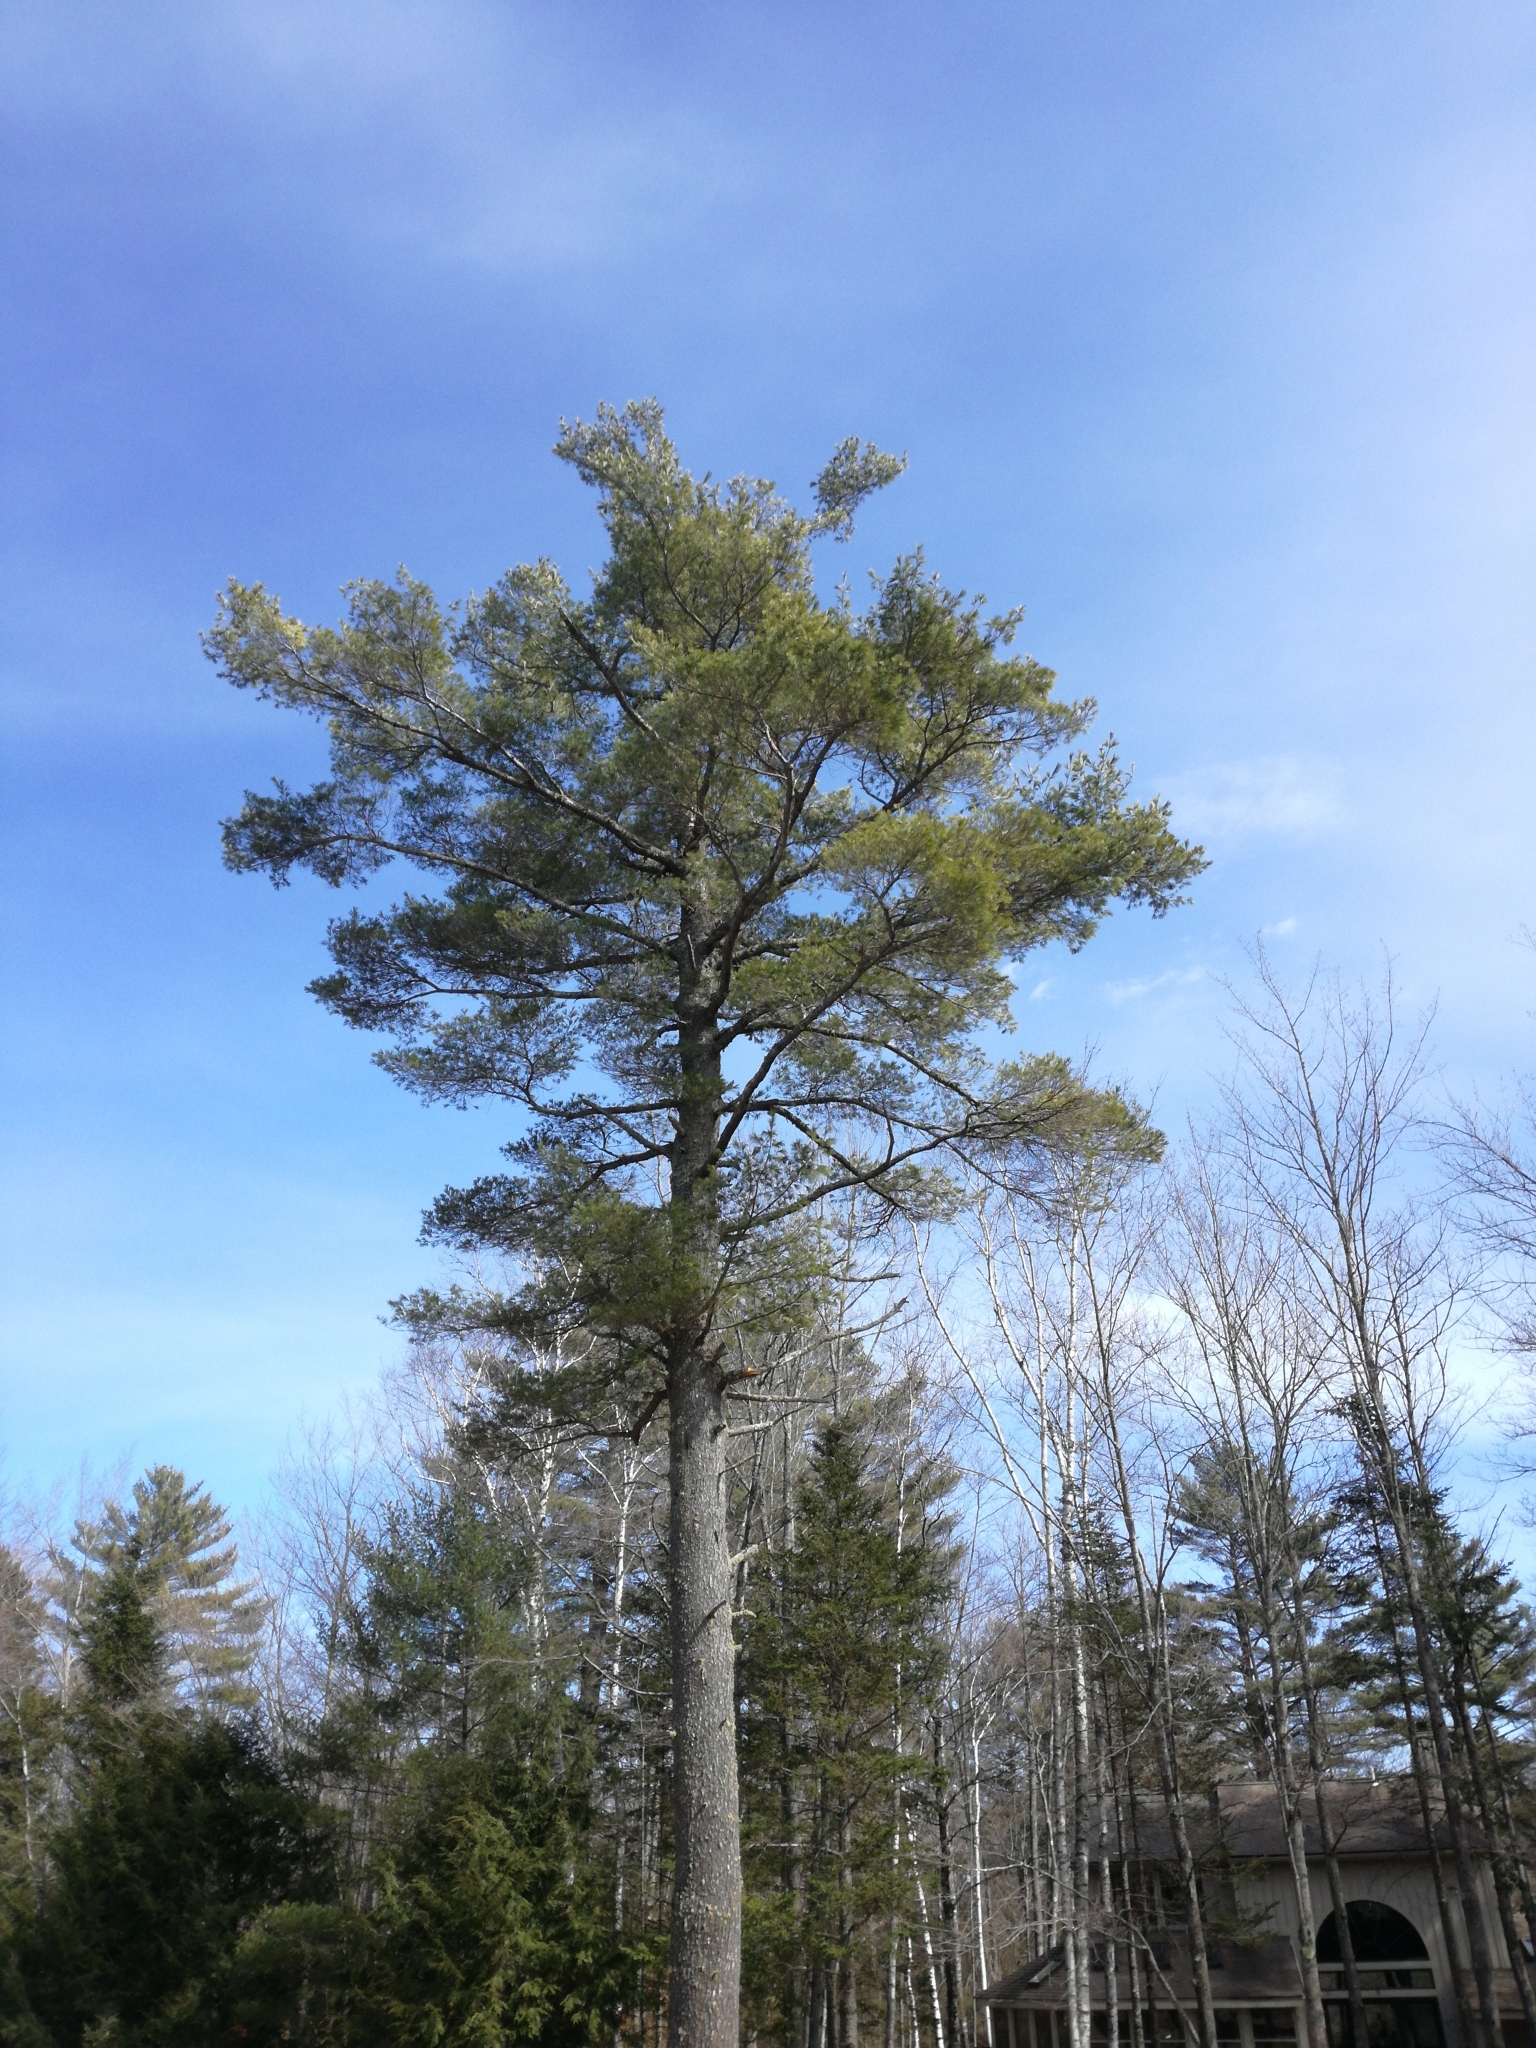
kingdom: Plantae
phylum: Tracheophyta
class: Pinopsida
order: Pinales
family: Pinaceae
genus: Pinus
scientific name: Pinus strobus
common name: Weymouth pine
